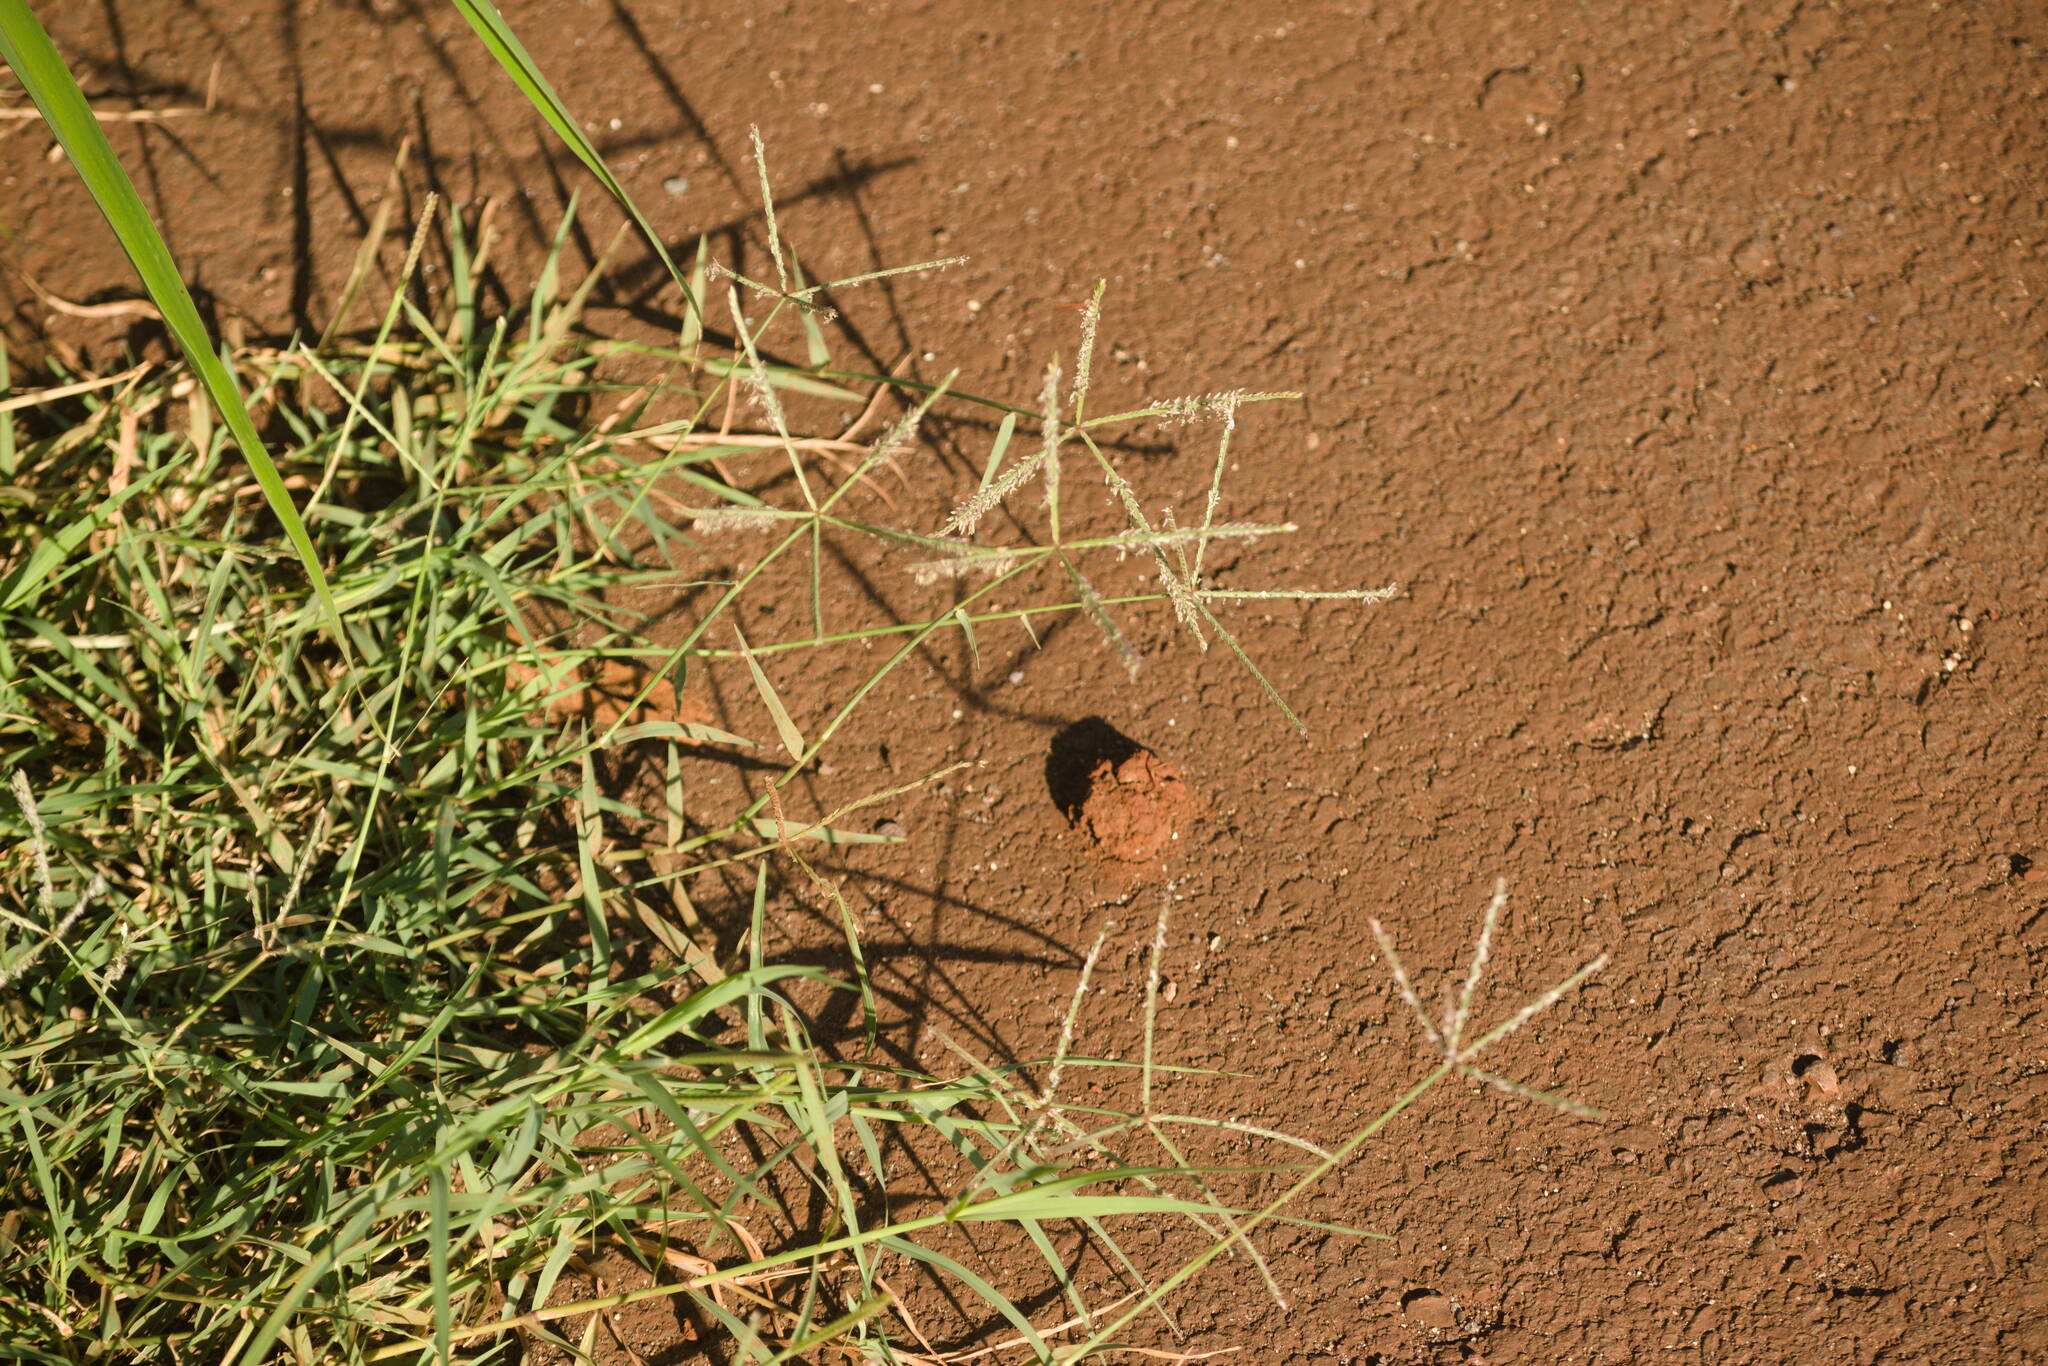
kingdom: Plantae
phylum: Tracheophyta
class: Liliopsida
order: Poales
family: Poaceae
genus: Cynodon
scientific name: Cynodon dactylon
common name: Bermuda grass
